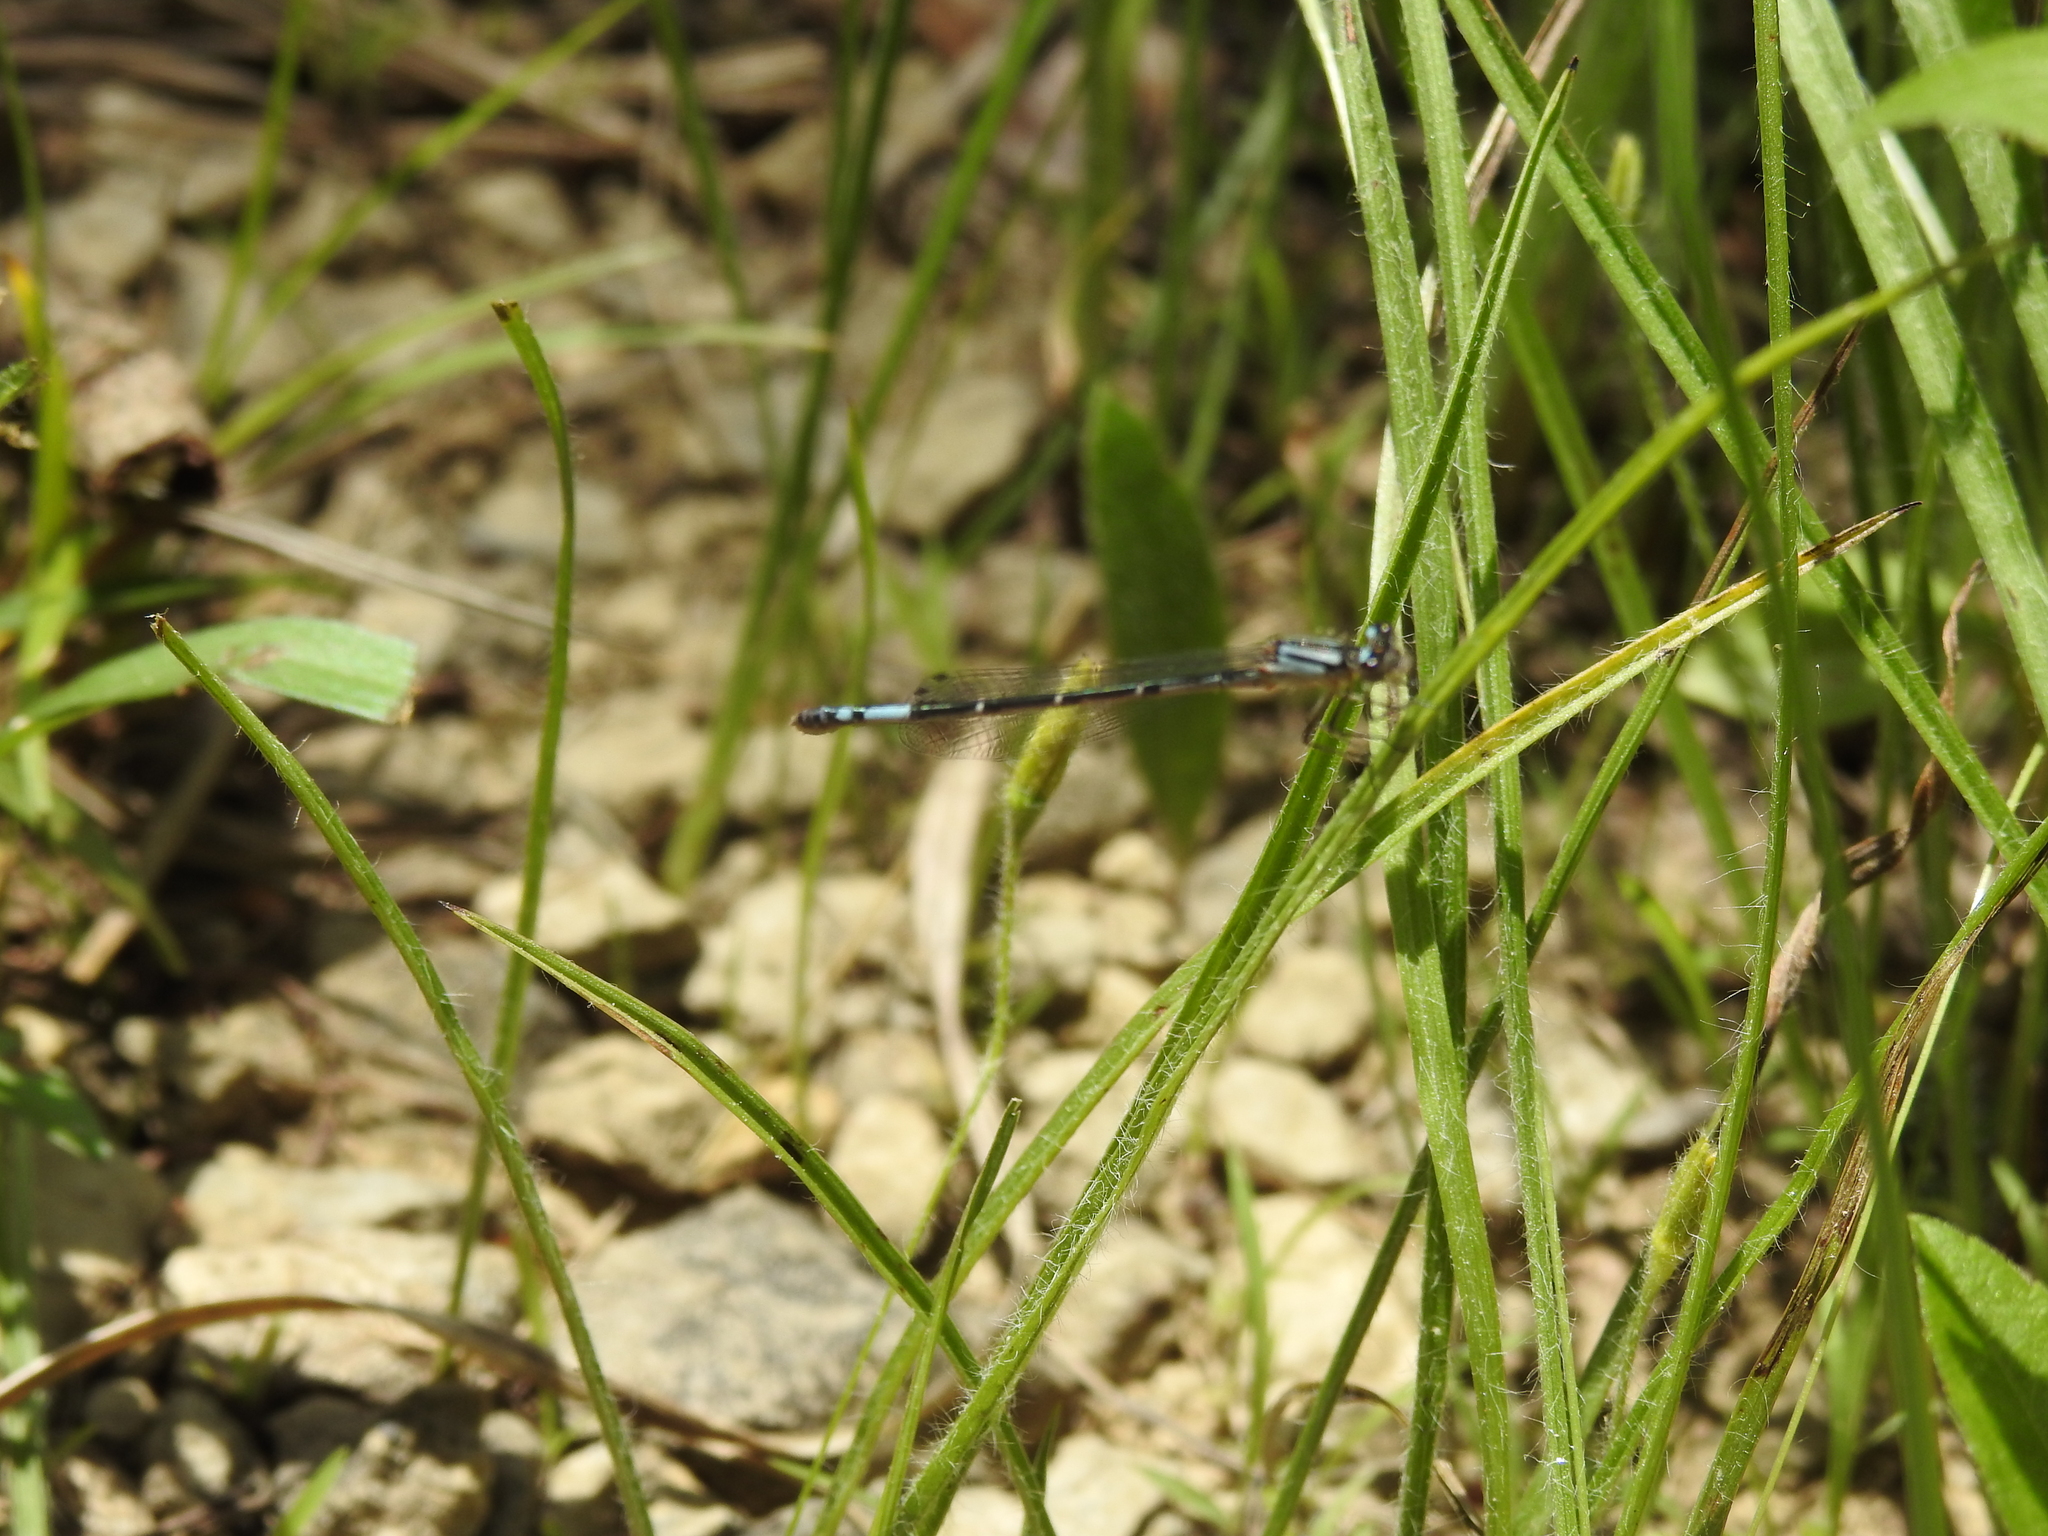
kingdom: Animalia
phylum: Arthropoda
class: Insecta
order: Odonata
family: Coenagrionidae
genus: Enallagma
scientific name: Enallagma aspersum
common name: Azure bluet
